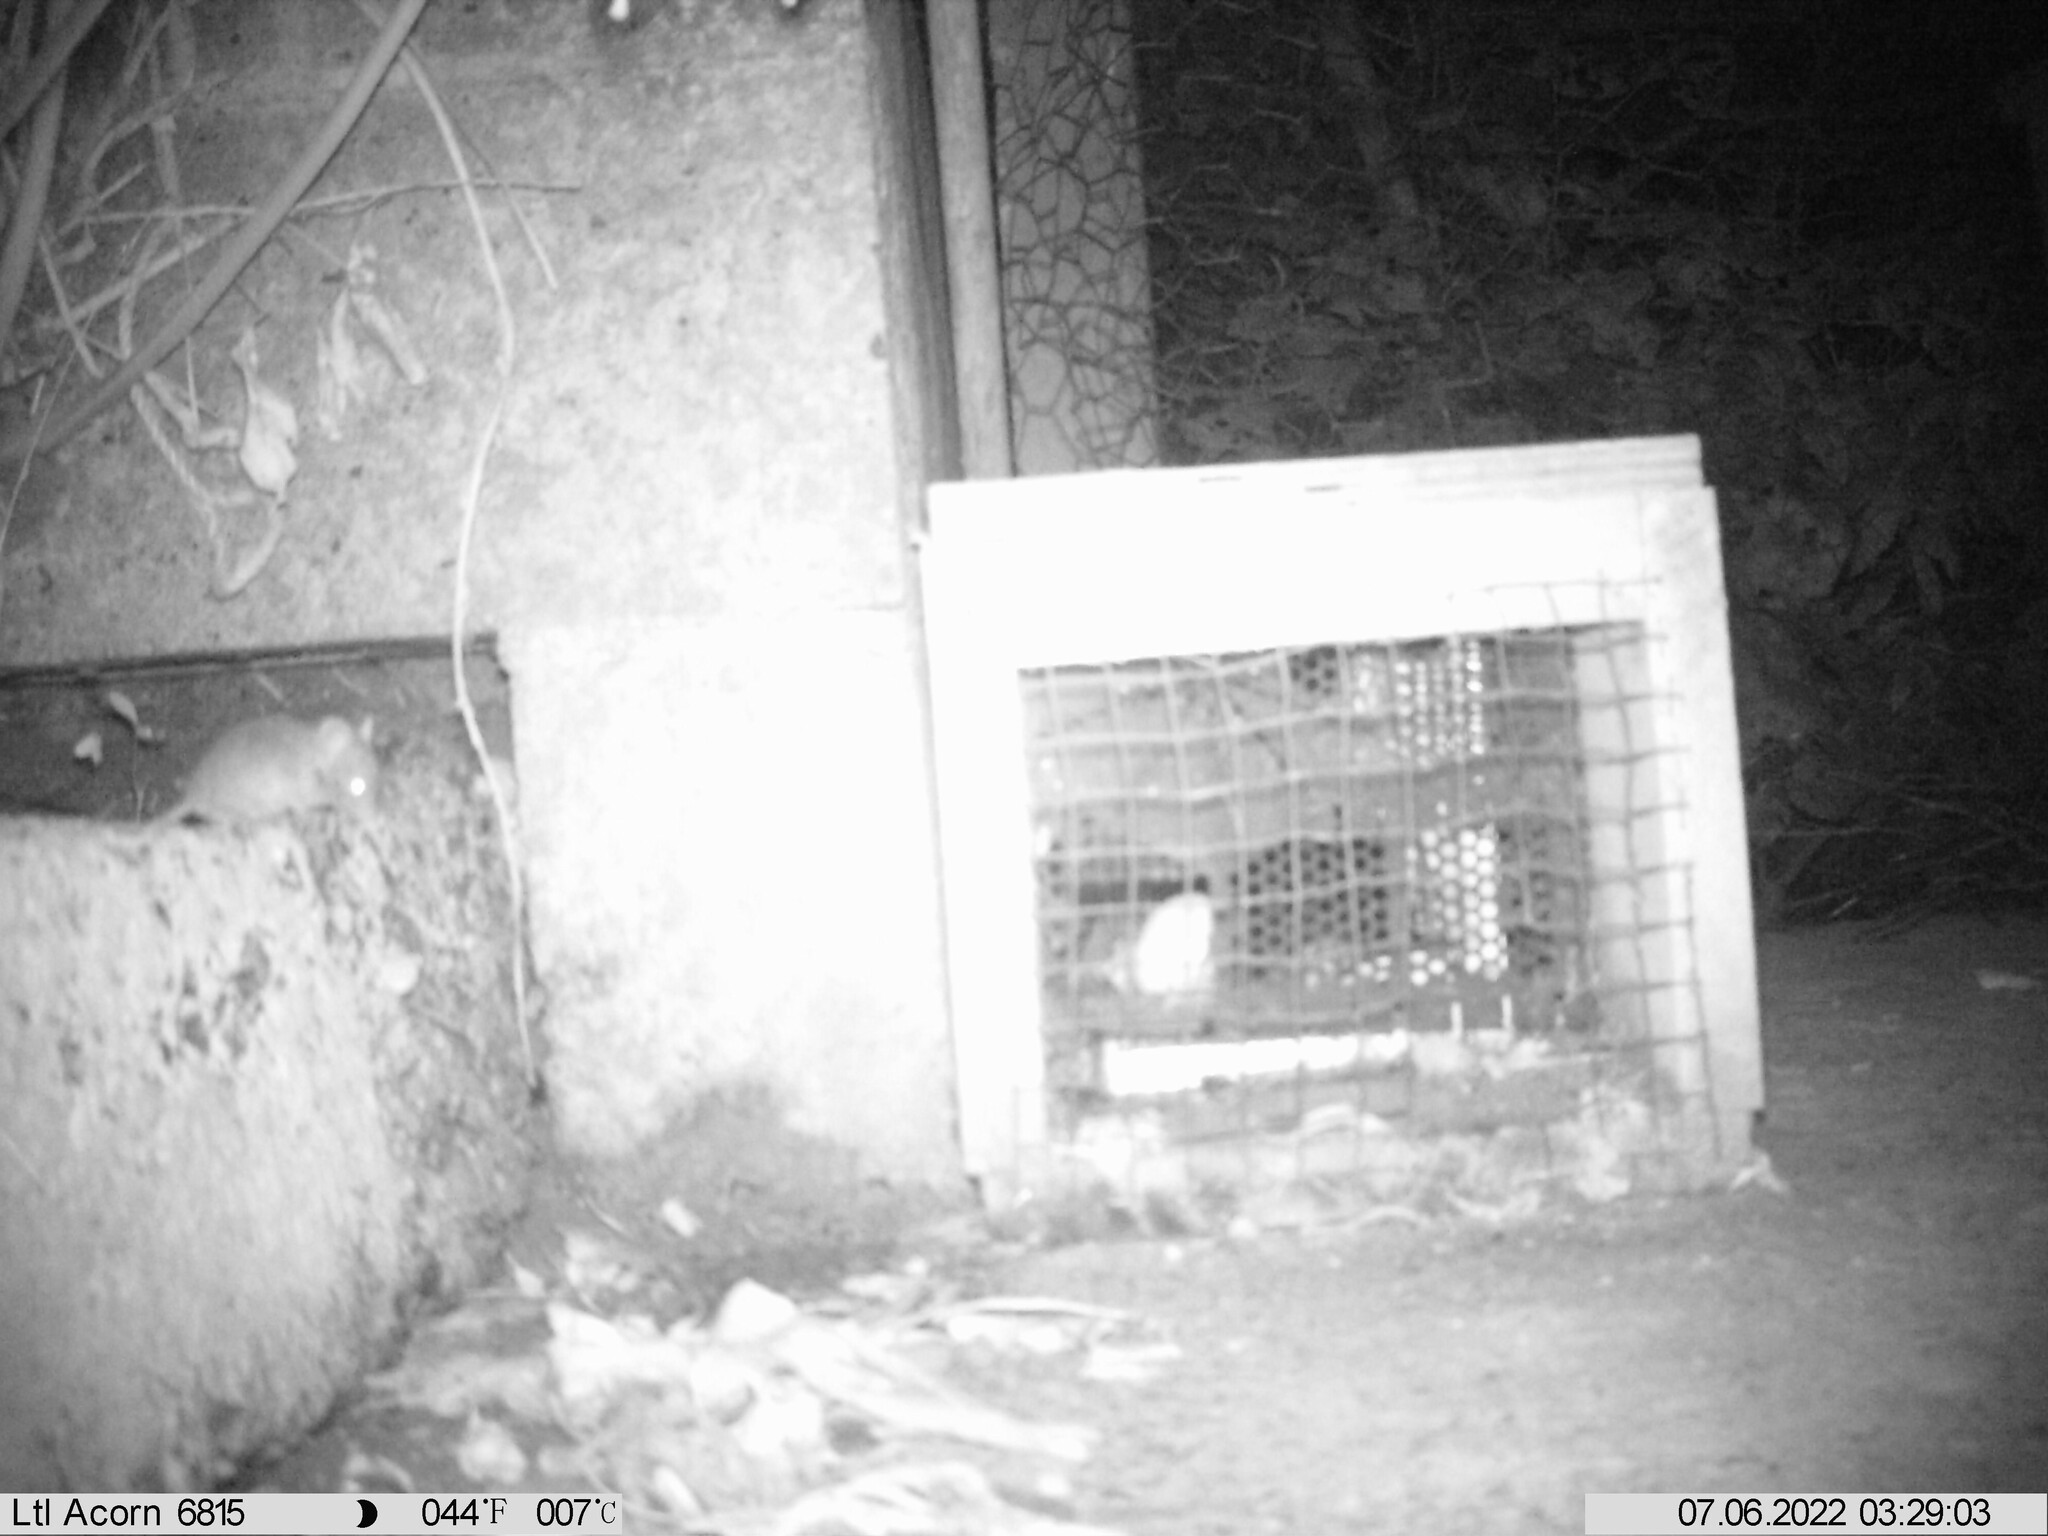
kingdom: Animalia
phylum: Chordata
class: Mammalia
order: Rodentia
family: Muridae
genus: Mus
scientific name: Mus musculus
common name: House mouse
